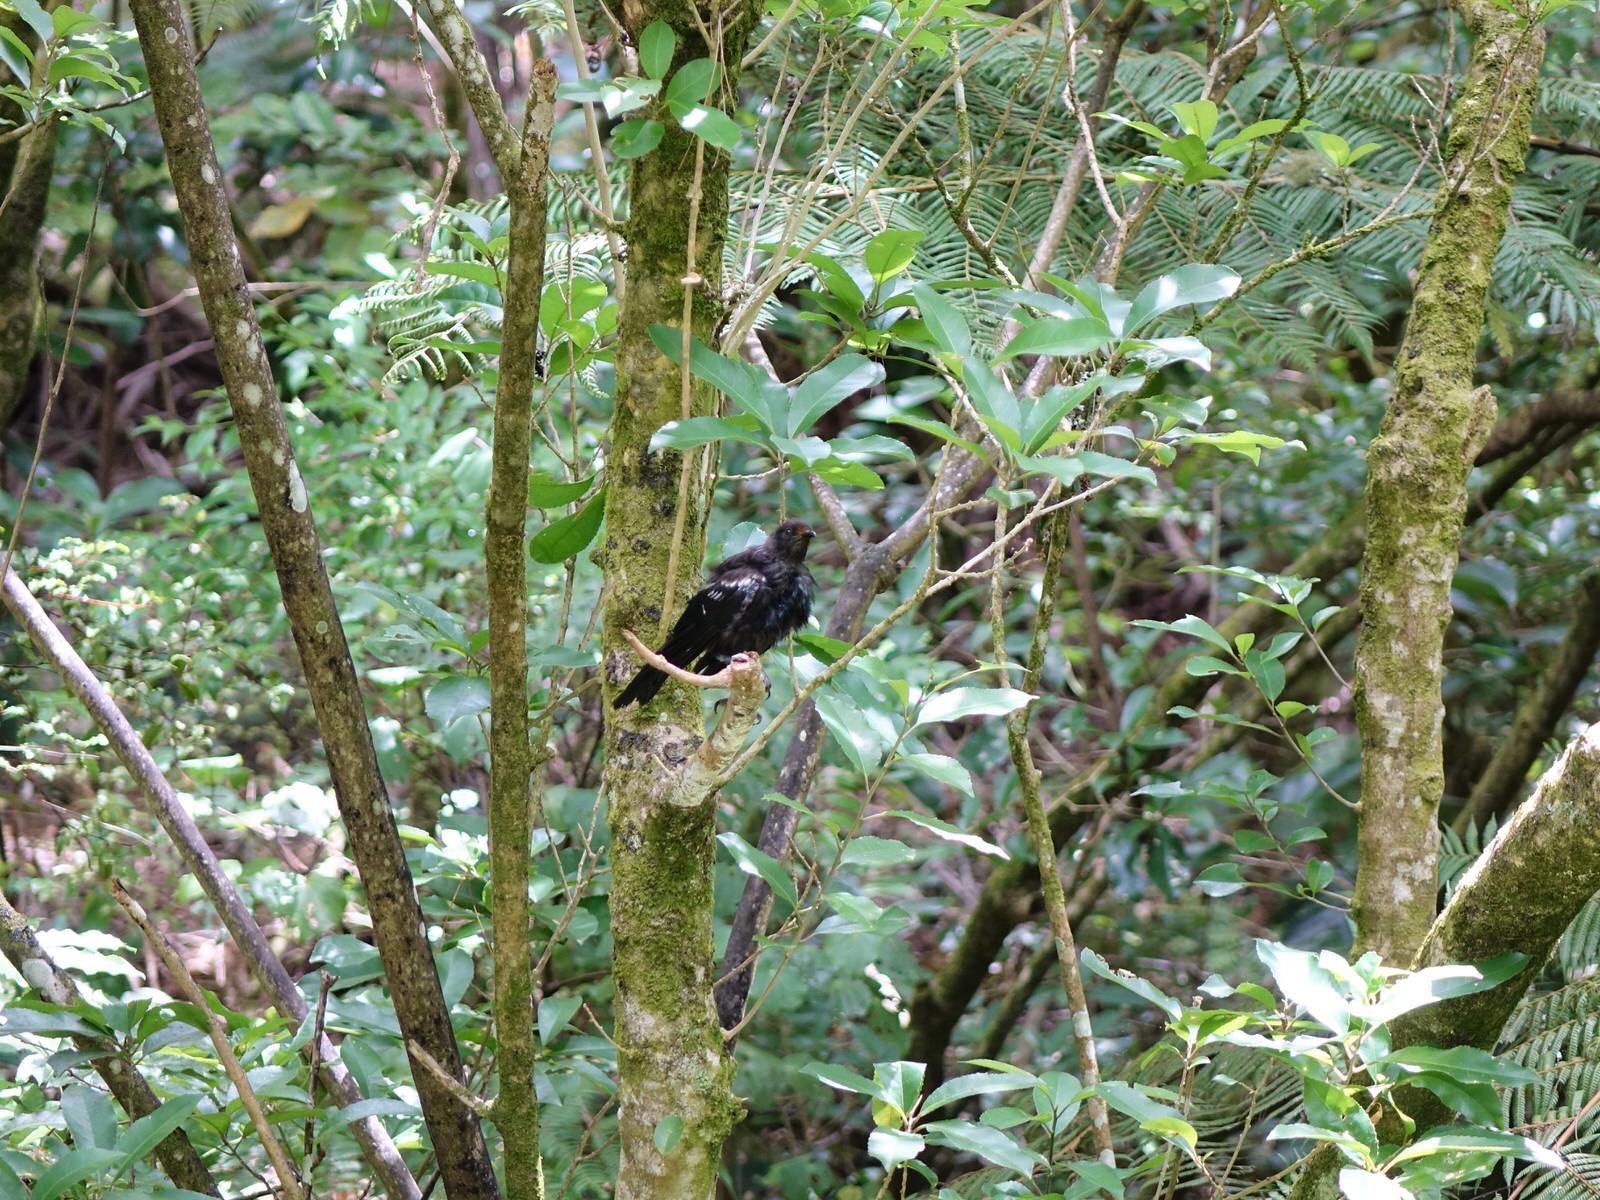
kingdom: Animalia
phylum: Chordata
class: Aves
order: Passeriformes
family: Meliphagidae
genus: Prosthemadera
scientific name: Prosthemadera novaeseelandiae
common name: Tui
